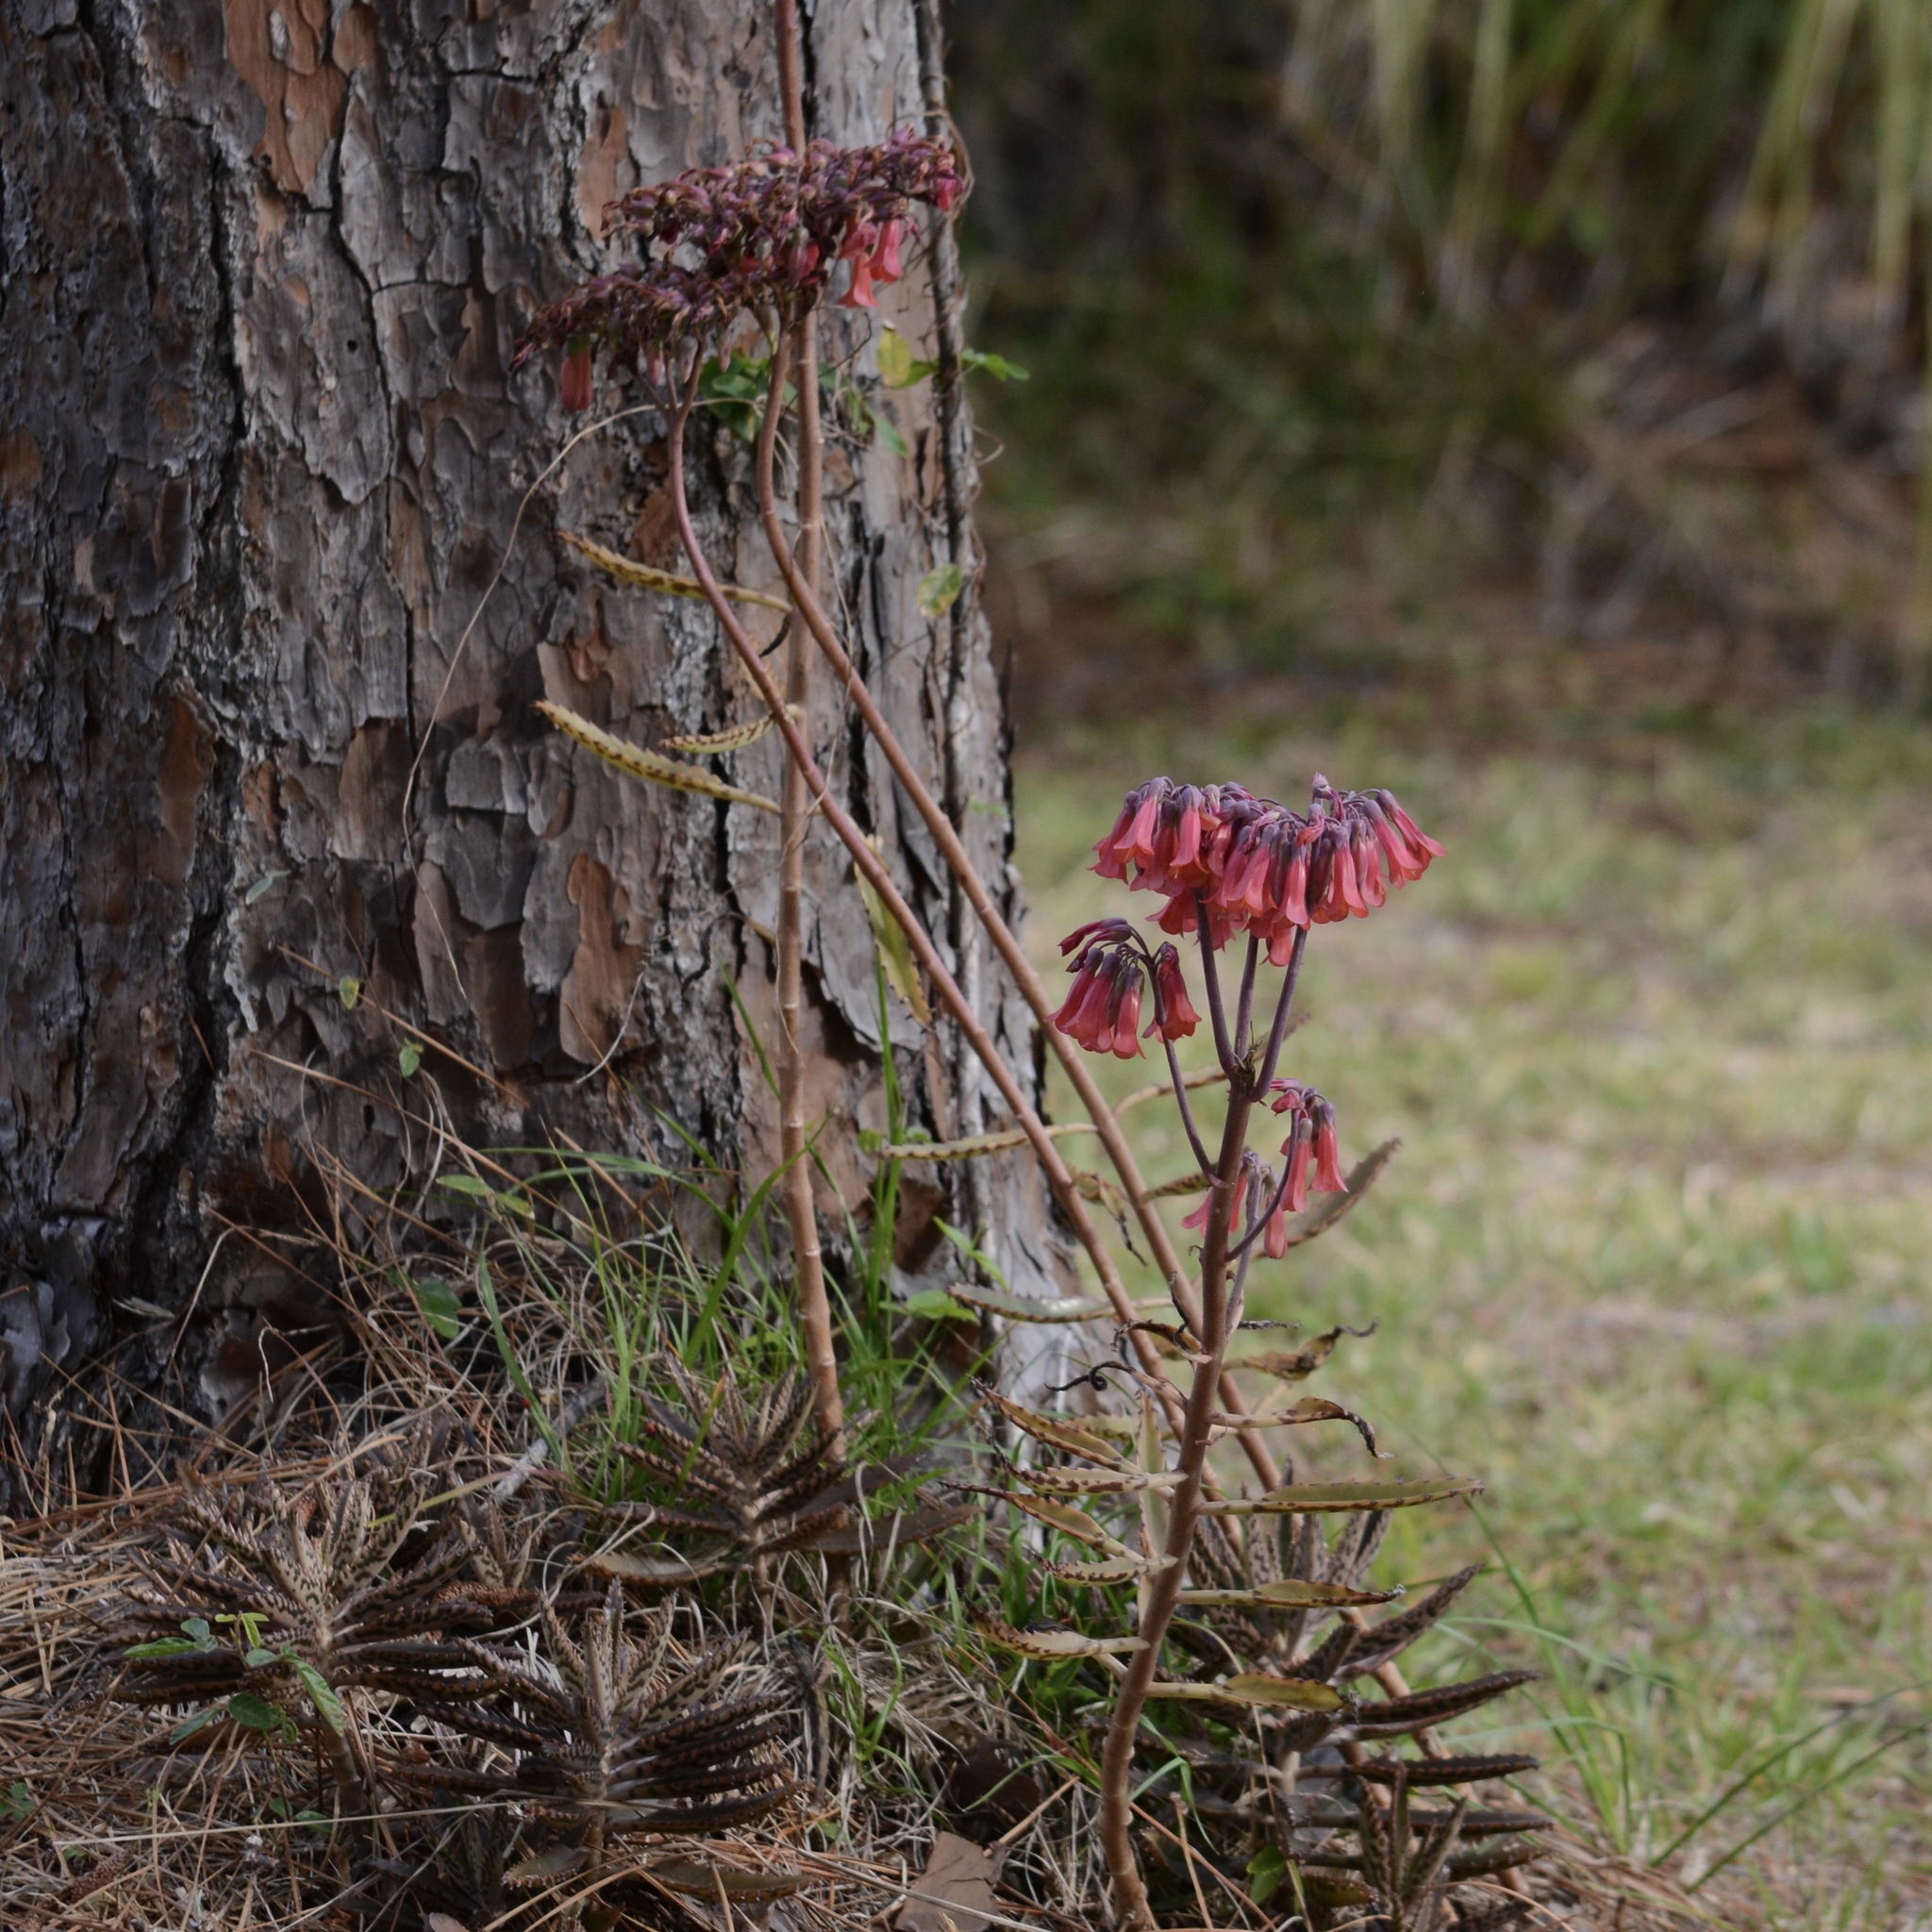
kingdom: Plantae
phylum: Tracheophyta
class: Magnoliopsida
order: Saxifragales
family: Crassulaceae
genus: Kalanchoe
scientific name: Kalanchoe delagoensis
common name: Chandelier plant
